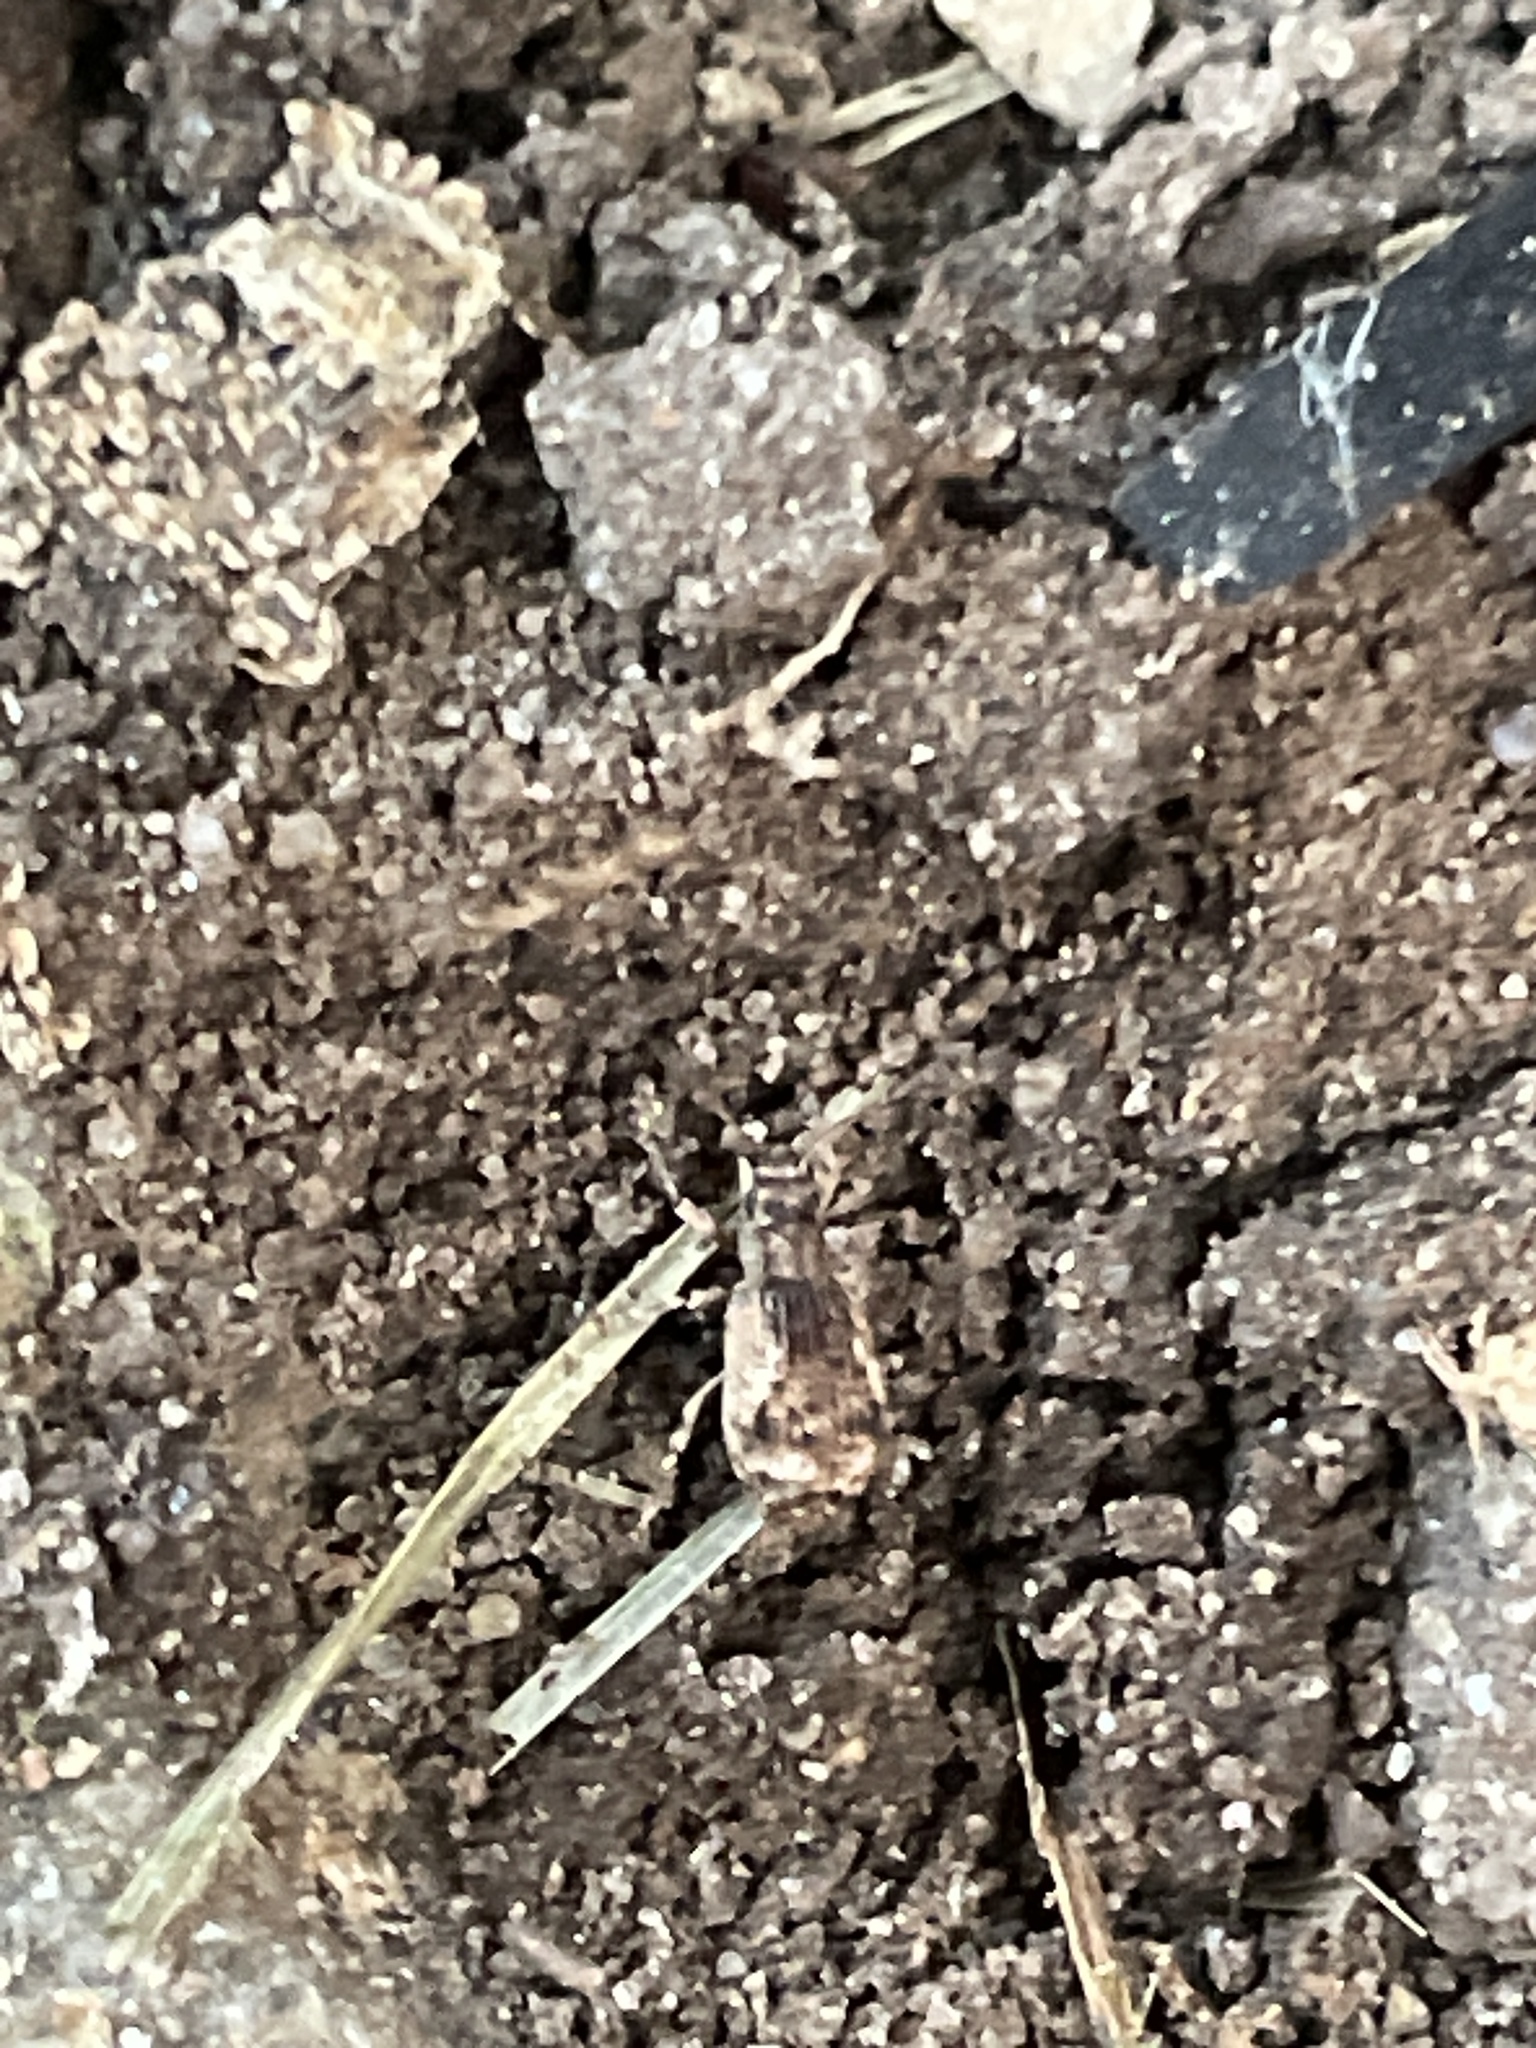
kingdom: Animalia
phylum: Arthropoda
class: Insecta
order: Coleoptera
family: Curculionidae
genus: Pseudoedophrys
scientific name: Pseudoedophrys hilleri
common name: Weevil
